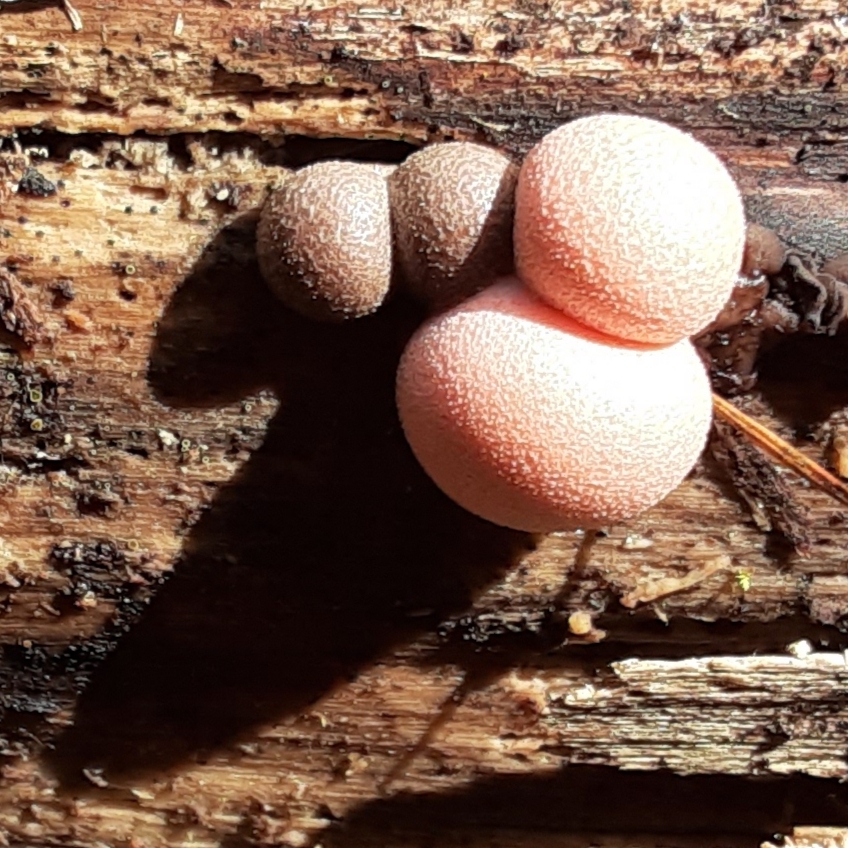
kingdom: Protozoa
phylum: Mycetozoa
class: Myxomycetes
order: Cribrariales
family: Tubiferaceae
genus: Lycogala
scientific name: Lycogala epidendrum
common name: Wolf's milk
